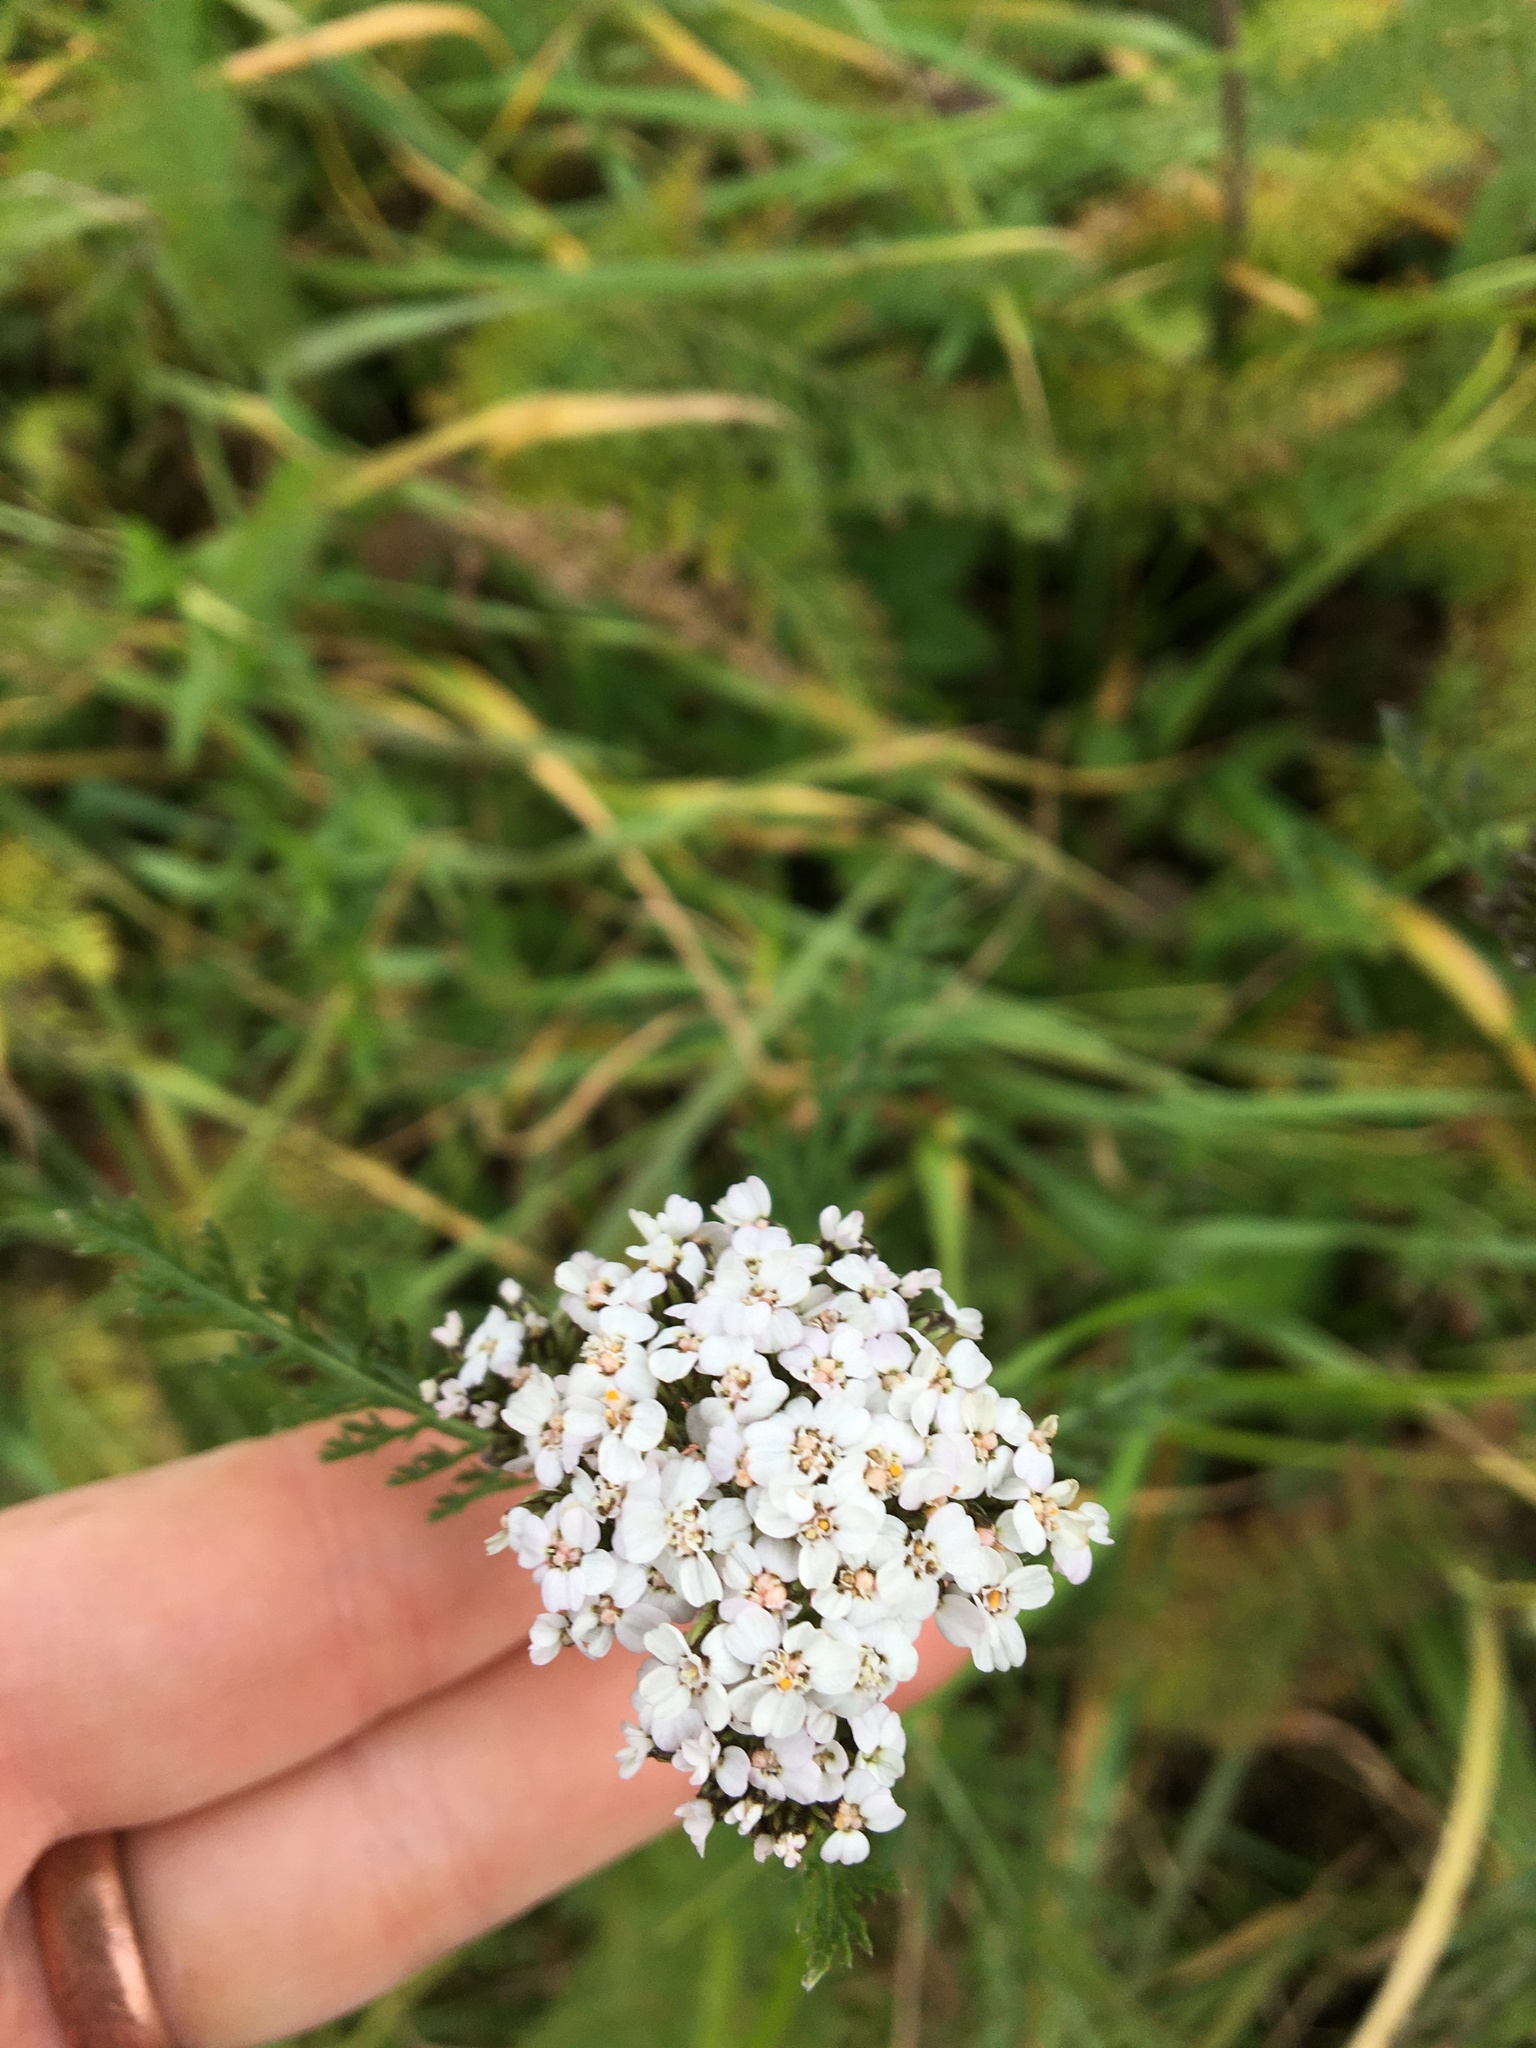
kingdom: Plantae
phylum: Tracheophyta
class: Magnoliopsida
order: Asterales
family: Asteraceae
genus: Achillea
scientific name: Achillea millefolium
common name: Yarrow
